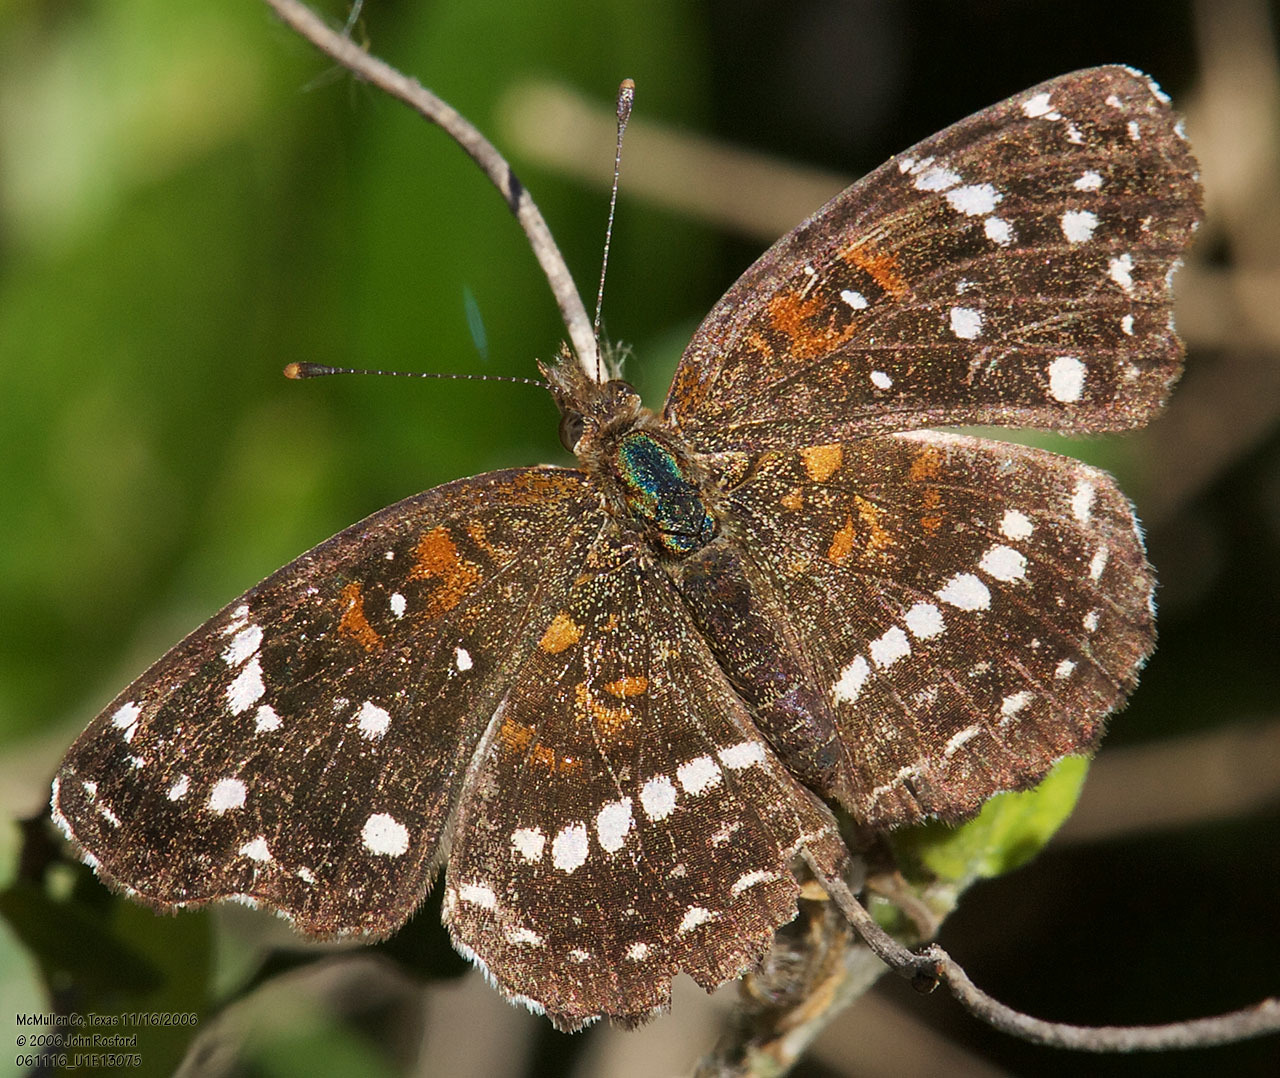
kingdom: Animalia
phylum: Arthropoda
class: Insecta
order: Lepidoptera
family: Nymphalidae
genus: Anthanassa
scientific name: Anthanassa texana
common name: Texan crescent
